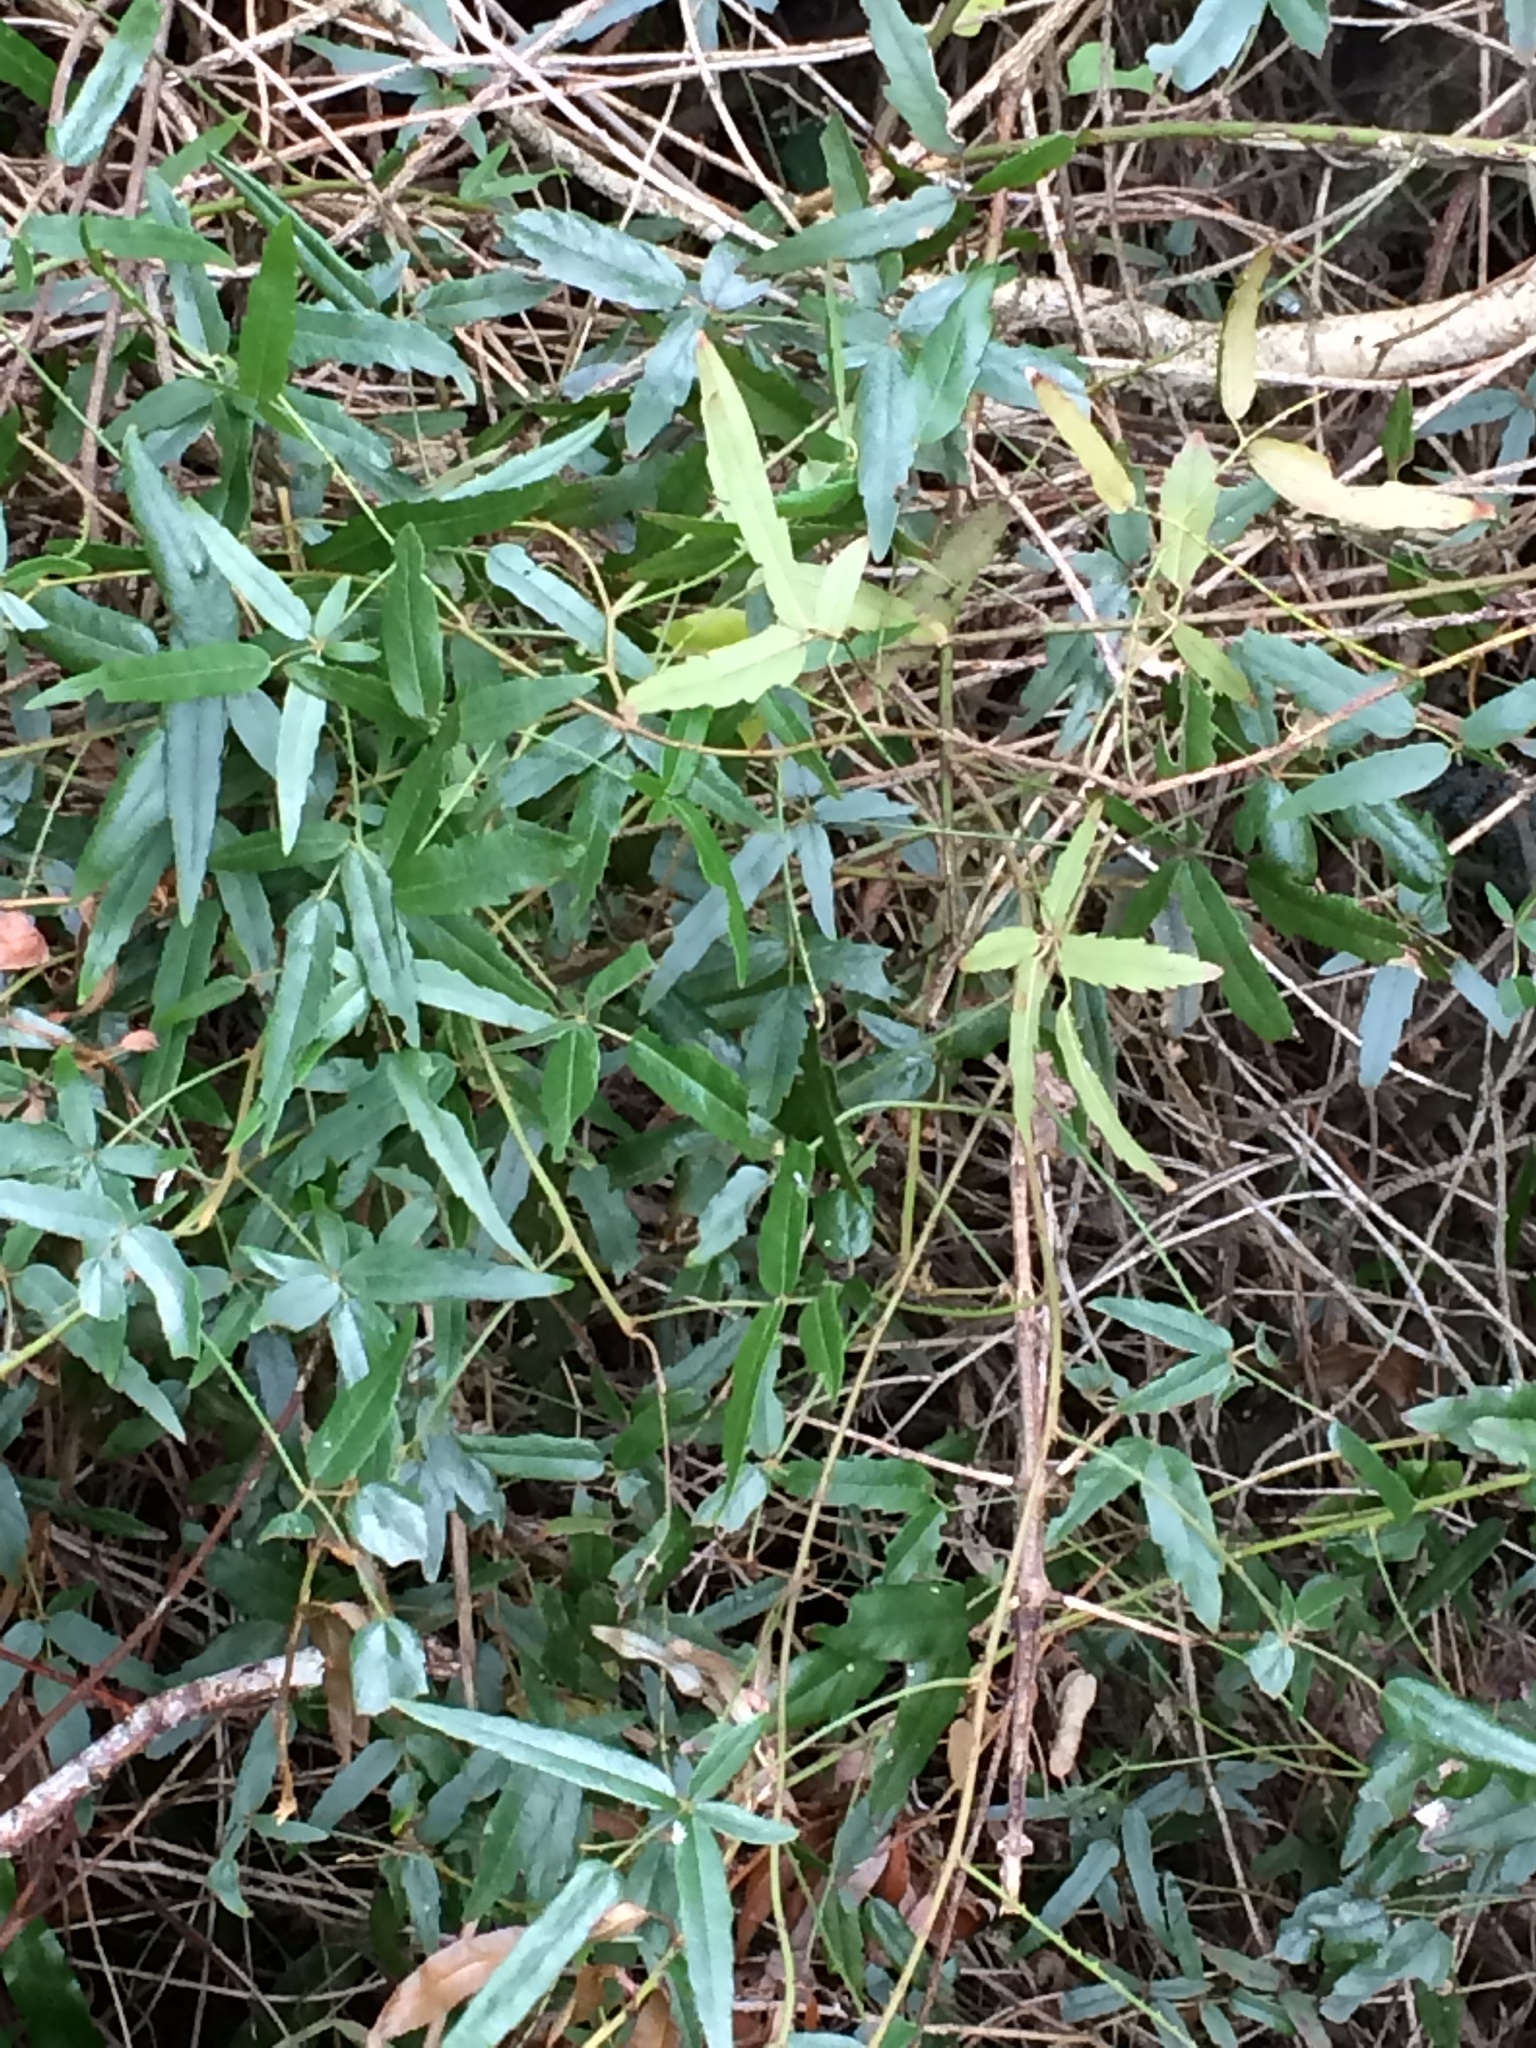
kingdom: Plantae
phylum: Tracheophyta
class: Magnoliopsida
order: Rosales
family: Rosaceae
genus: Rubus
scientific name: Rubus schmidelioides
